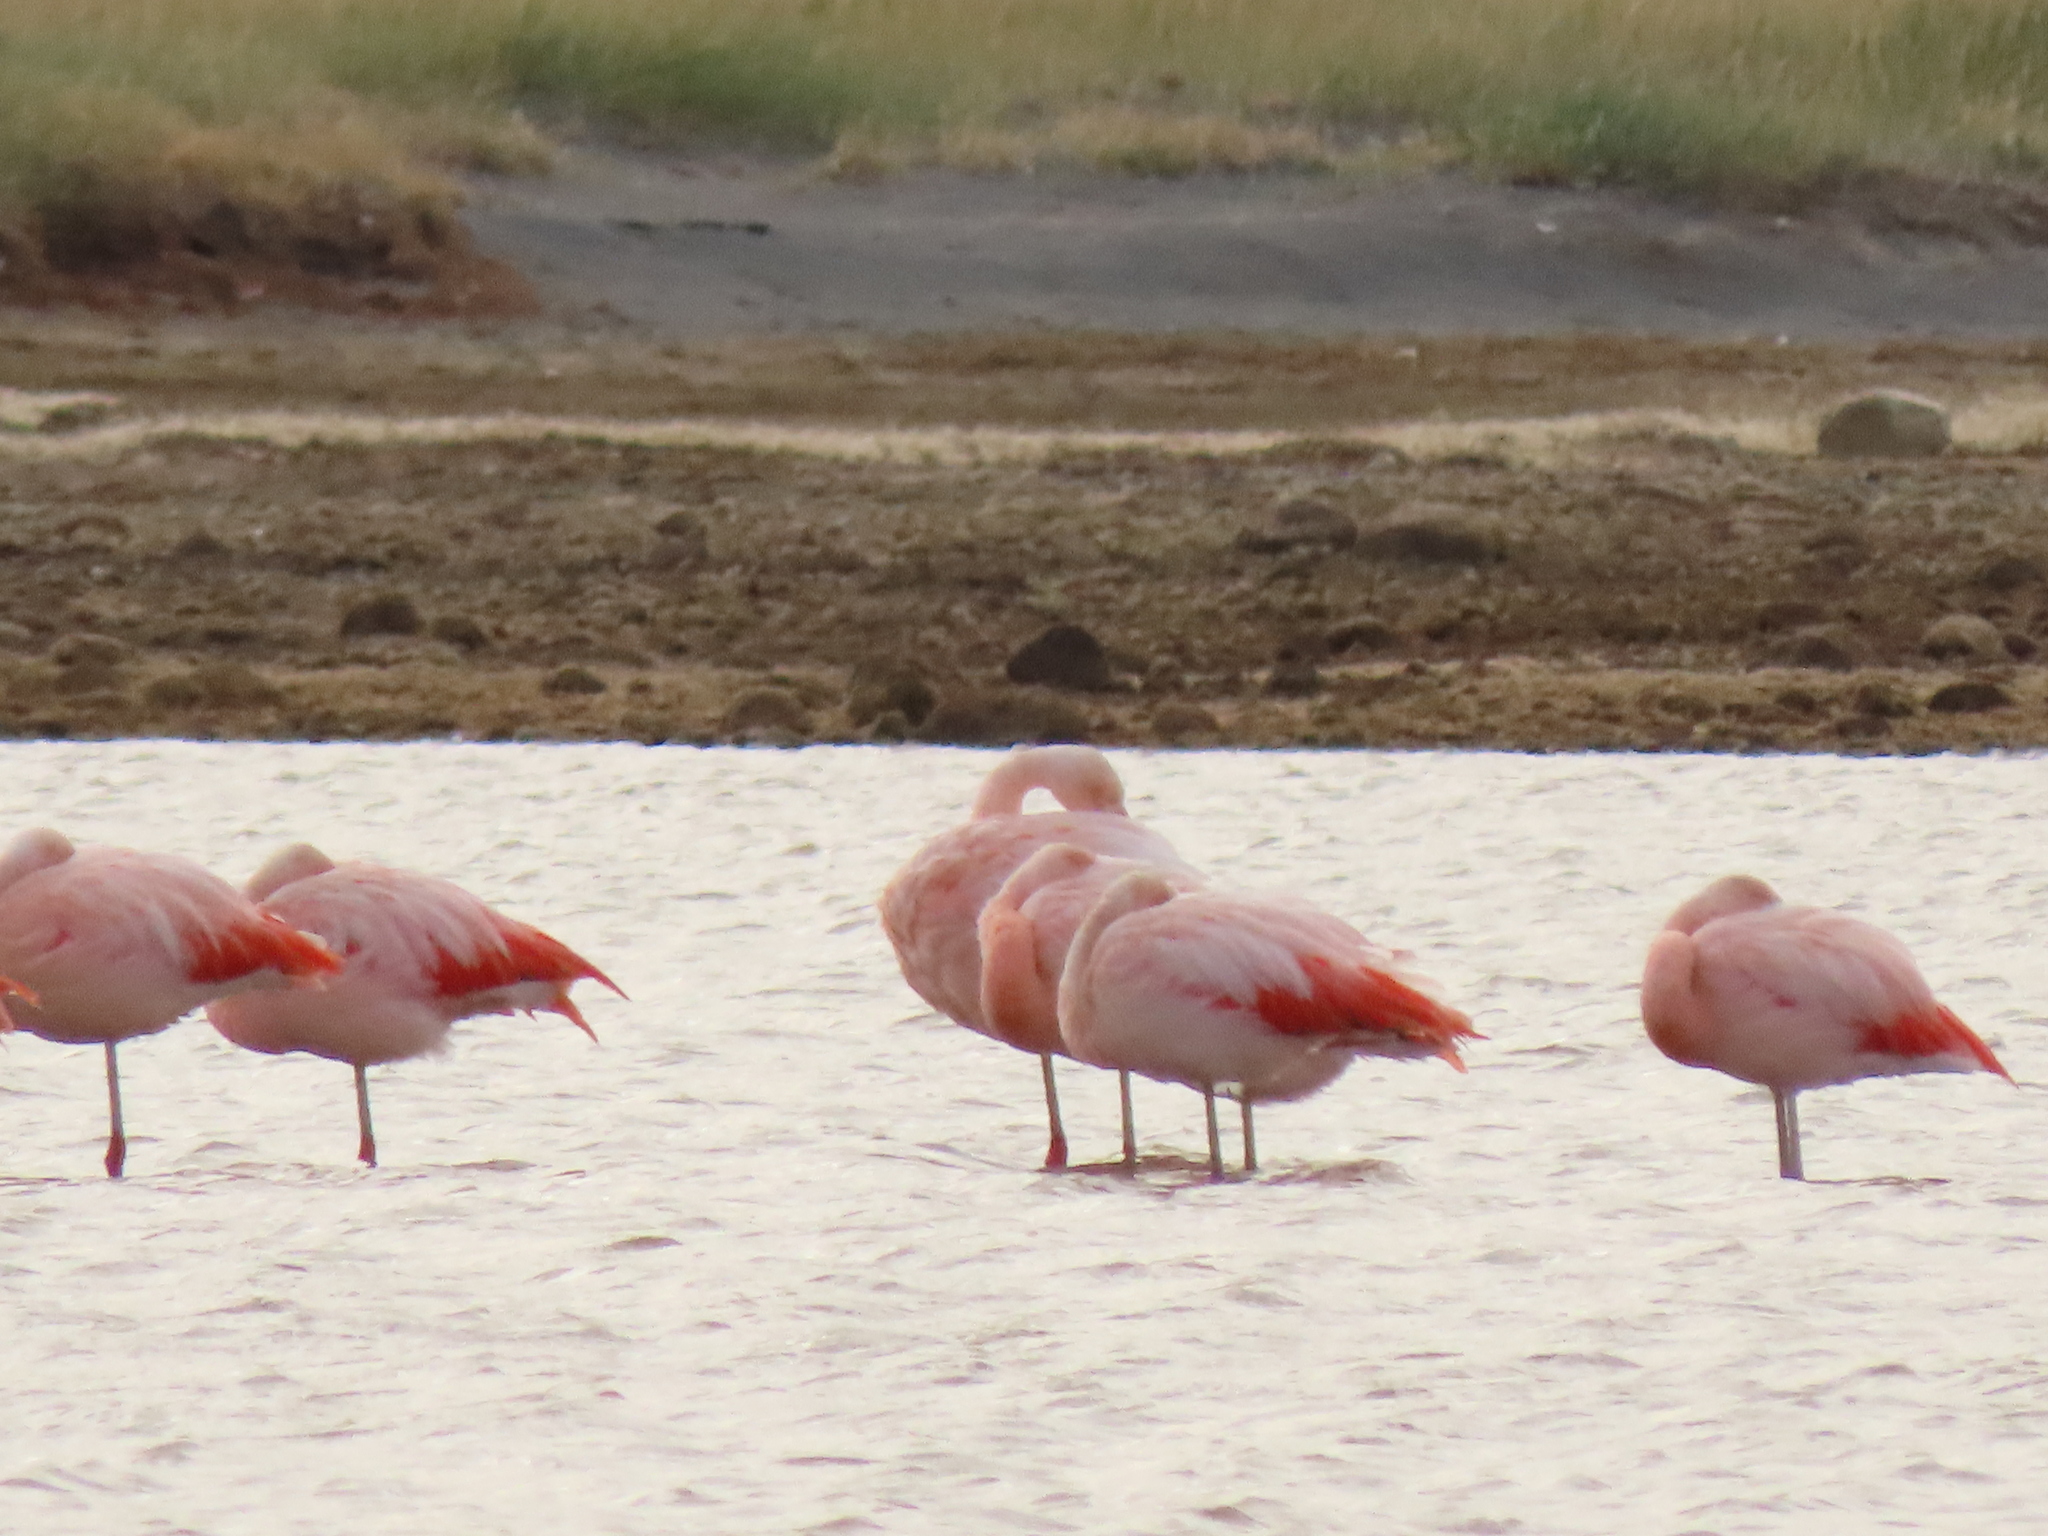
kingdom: Animalia
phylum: Chordata
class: Aves
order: Phoenicopteriformes
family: Phoenicopteridae
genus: Phoenicopterus
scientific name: Phoenicopterus chilensis
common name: Chilean flamingo
